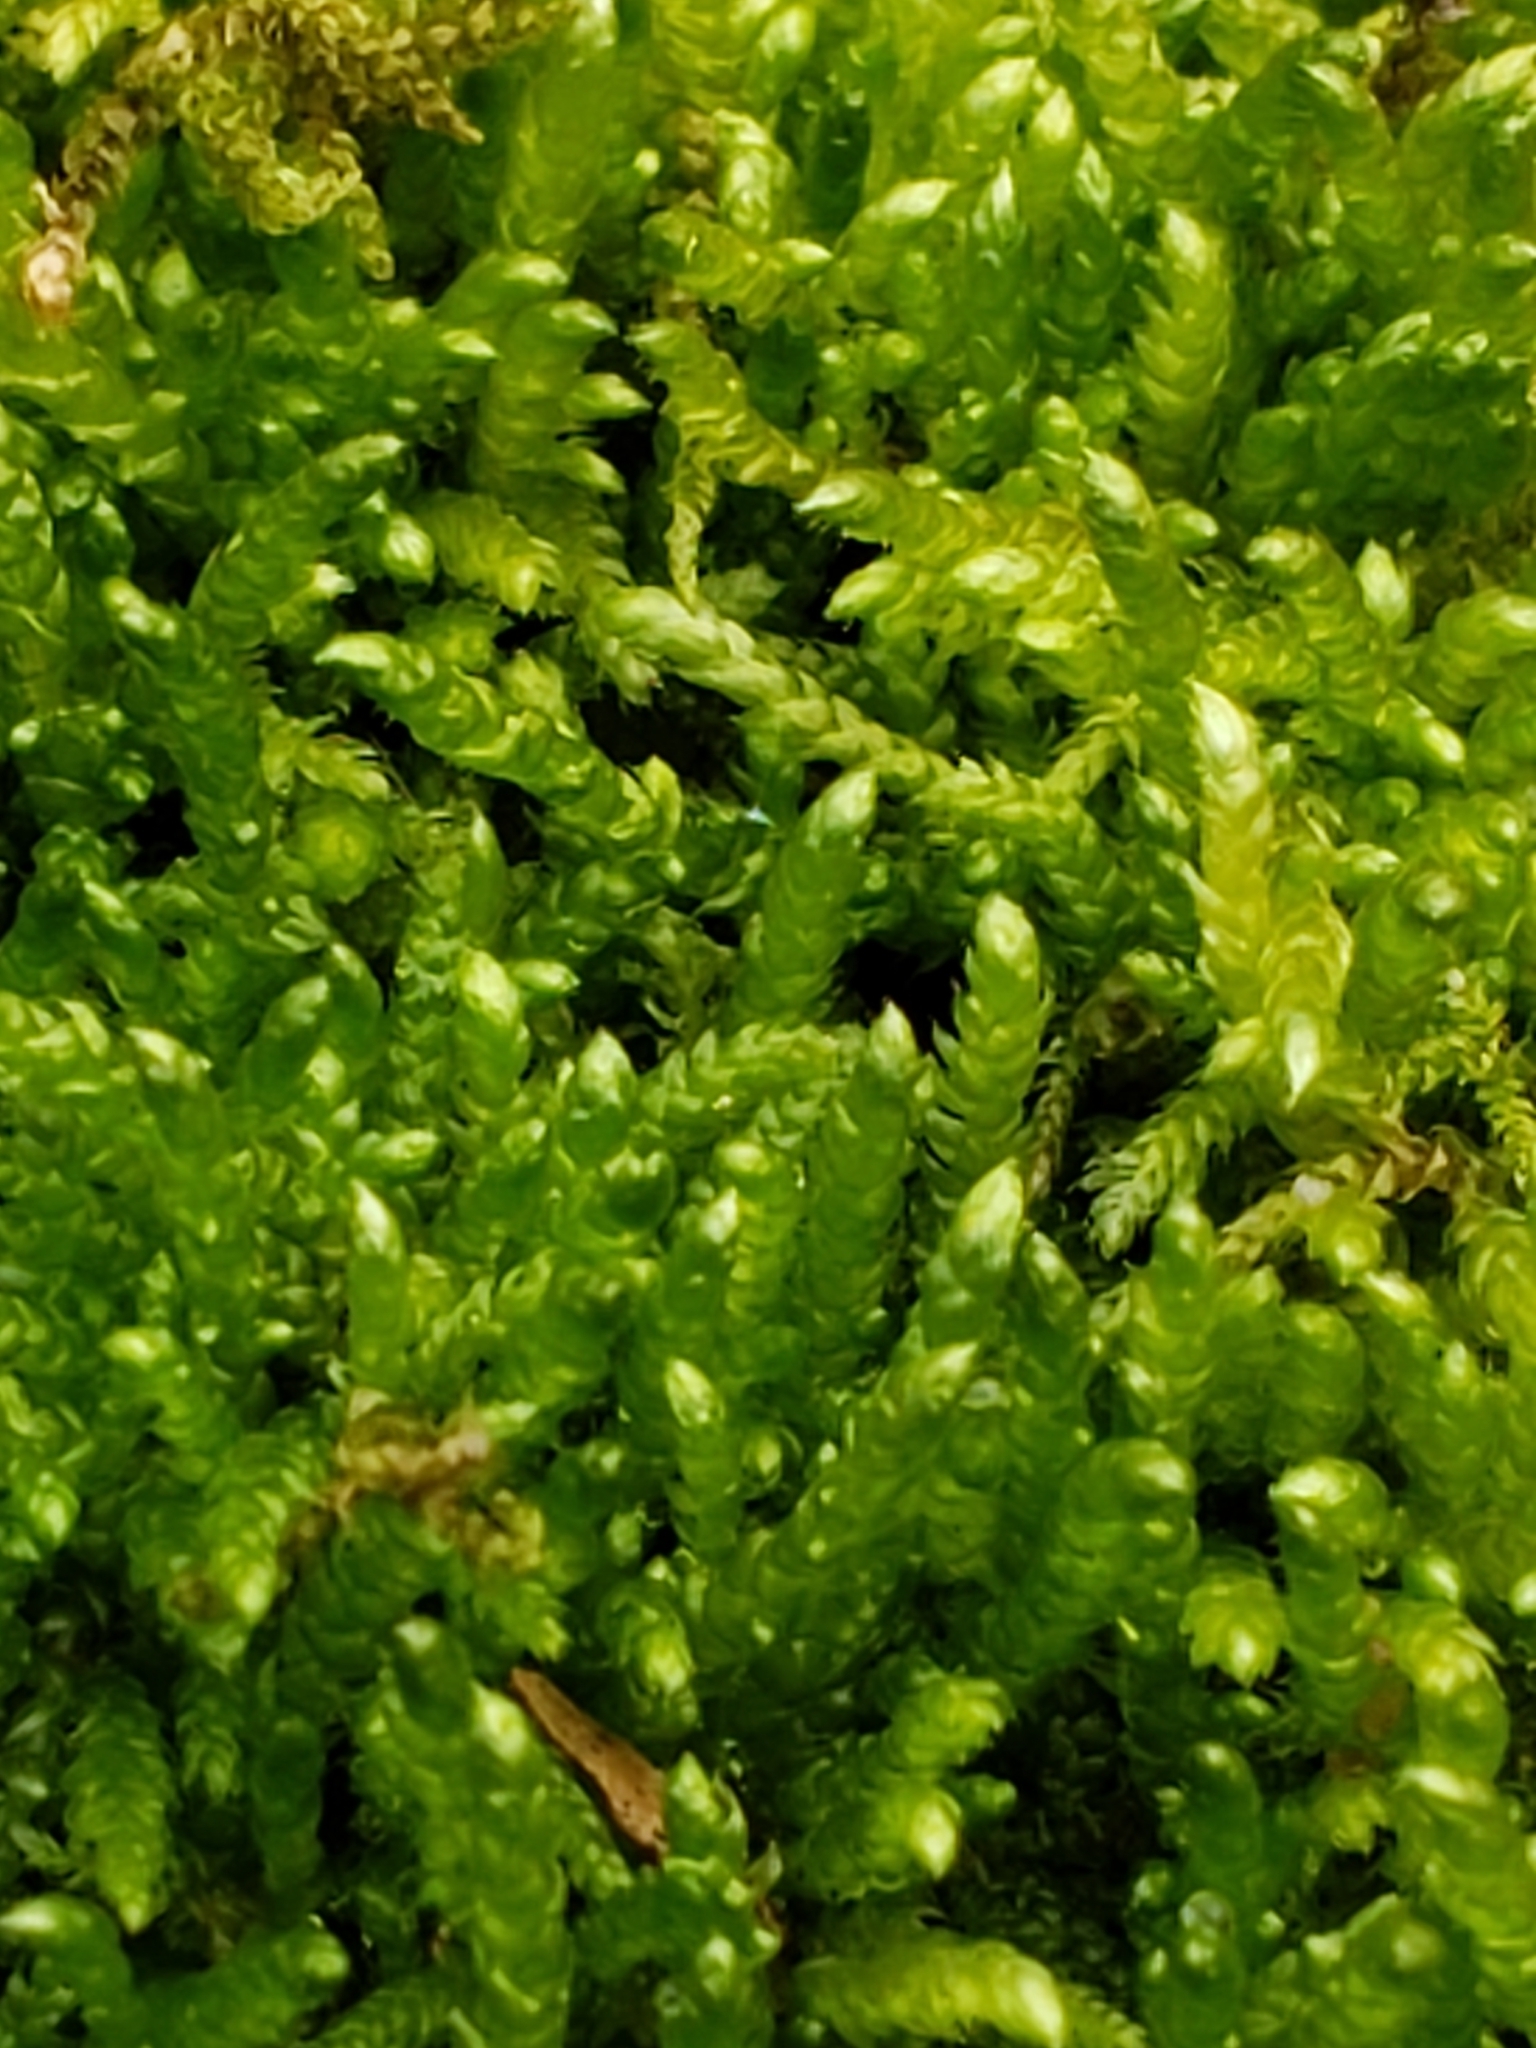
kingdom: Plantae
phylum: Bryophyta
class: Bryopsida
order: Hypnales
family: Pylaisiaceae
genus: Calliergonella
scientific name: Calliergonella lindbergii
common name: Lindberg's plait-moss
